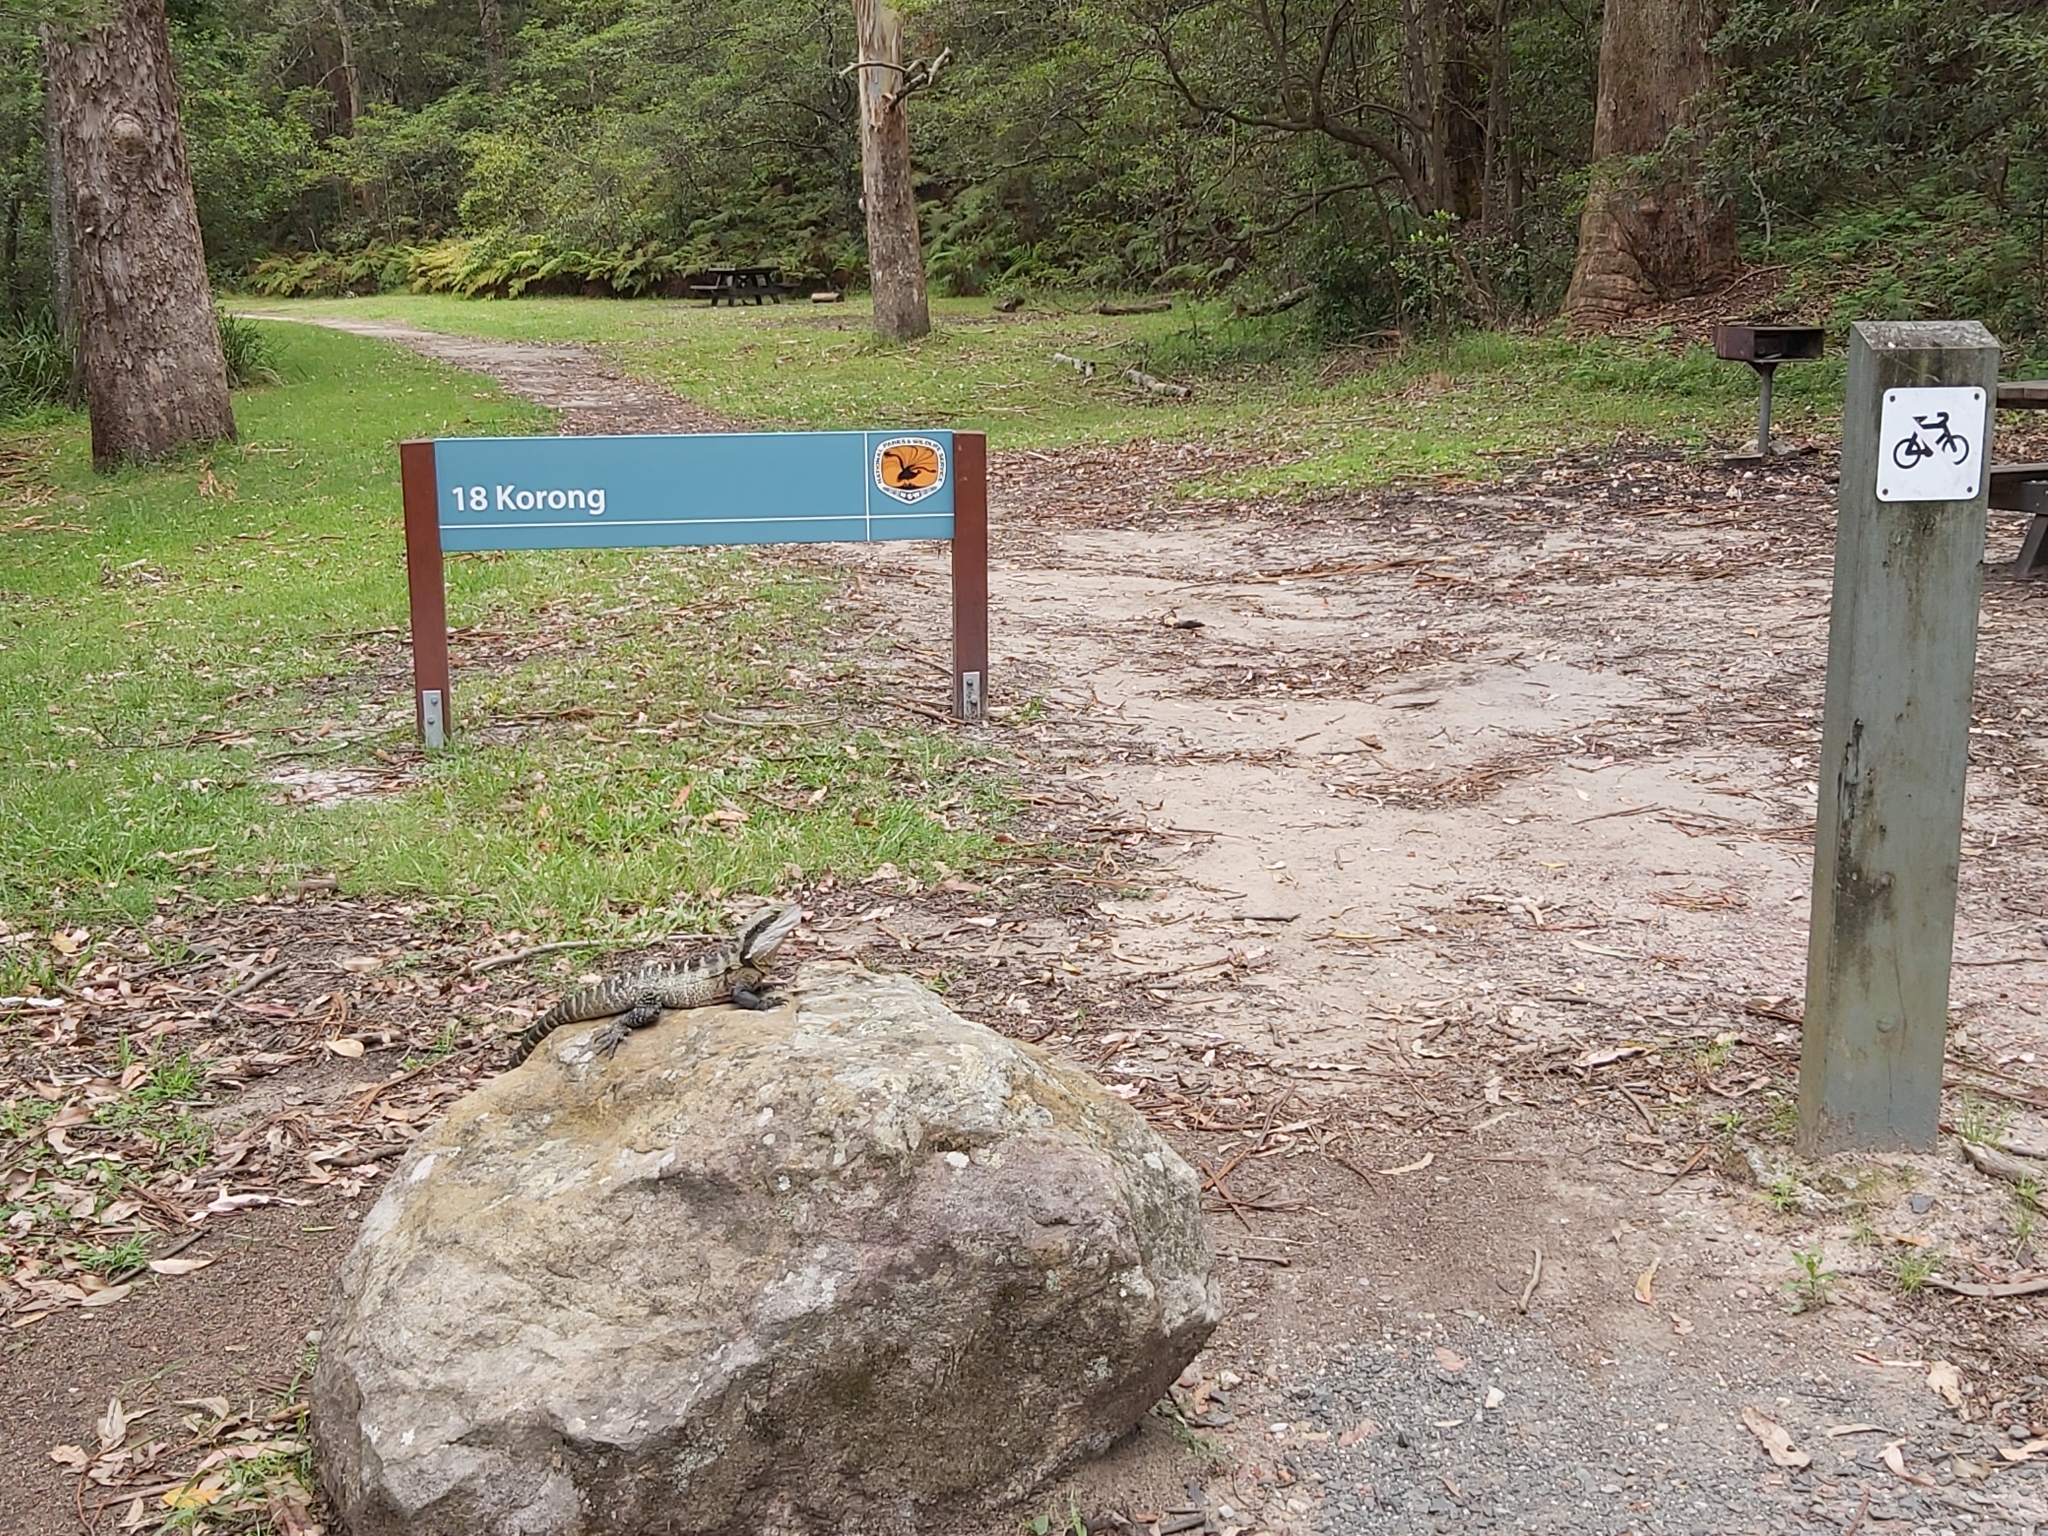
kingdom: Animalia
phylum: Chordata
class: Squamata
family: Agamidae
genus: Intellagama
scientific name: Intellagama lesueurii
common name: Eastern water dragon
